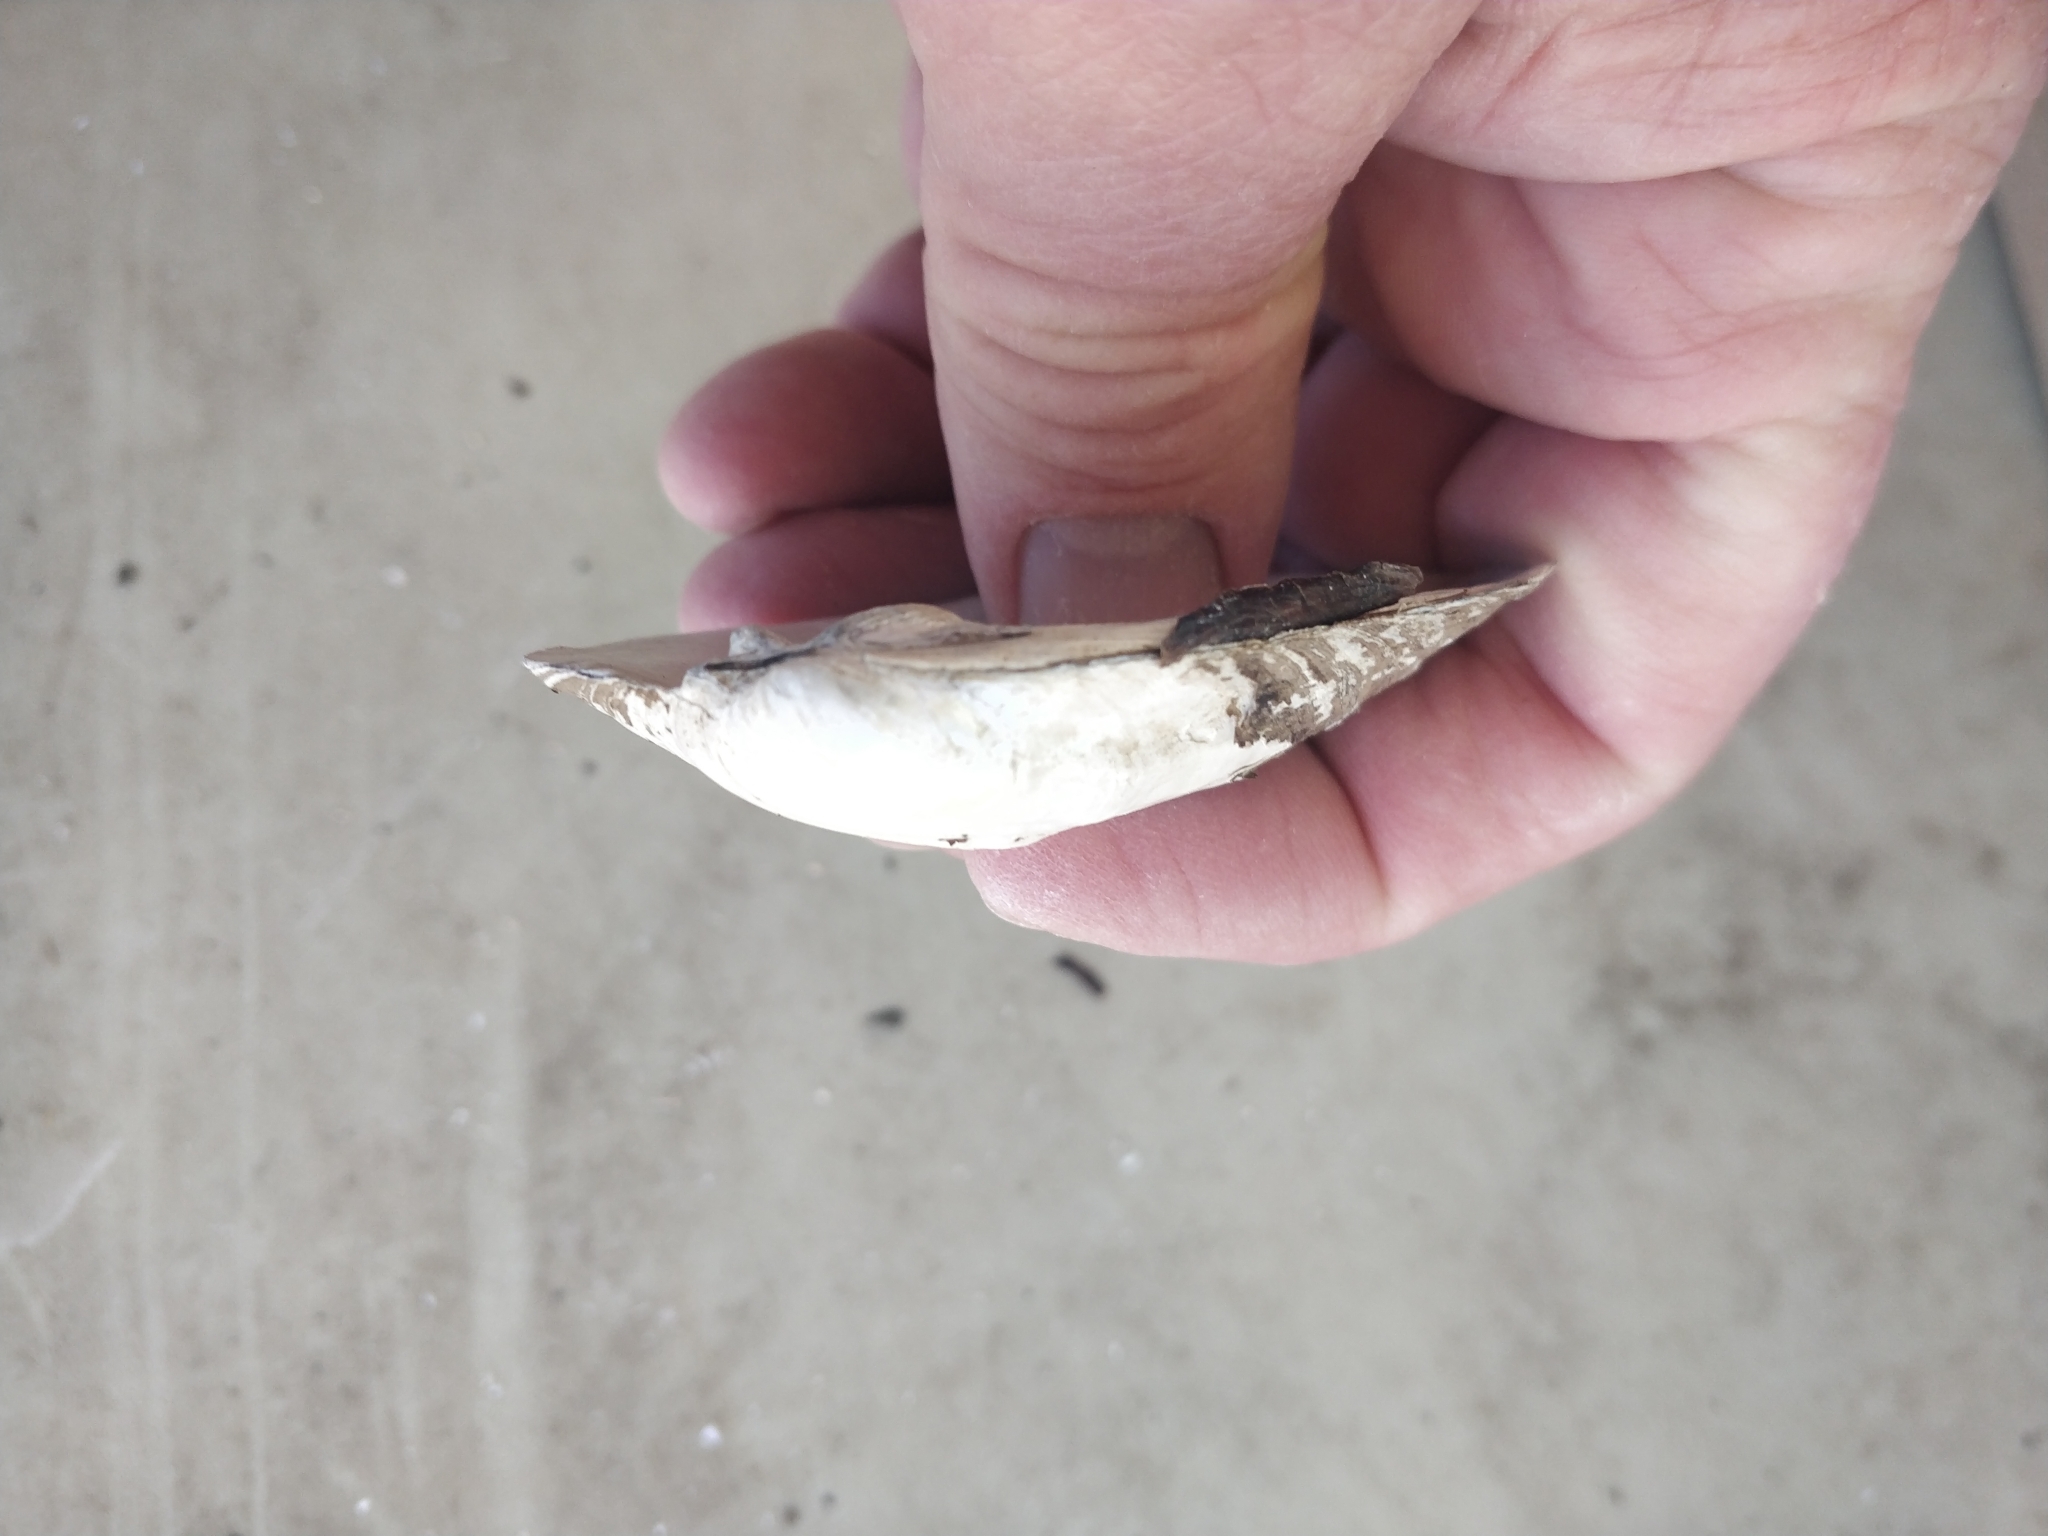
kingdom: Animalia
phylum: Mollusca
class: Bivalvia
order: Unionida
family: Unionidae
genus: Amblema
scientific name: Amblema plicata
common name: Threeridge
